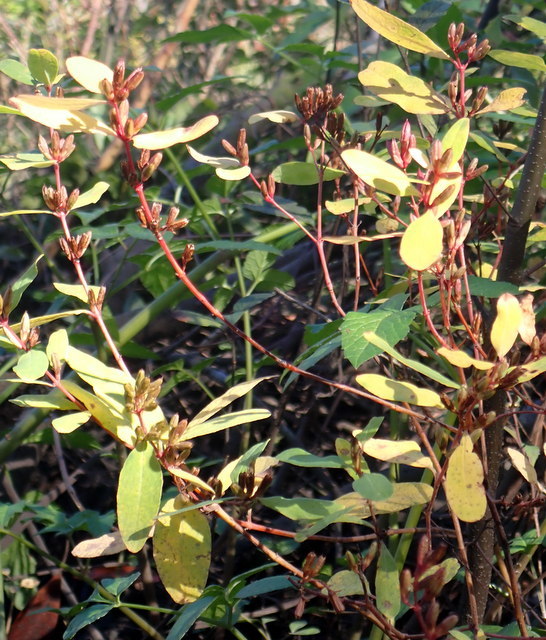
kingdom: Plantae
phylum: Tracheophyta
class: Magnoliopsida
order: Malpighiales
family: Hypericaceae
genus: Triadenum
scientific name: Triadenum walteri
